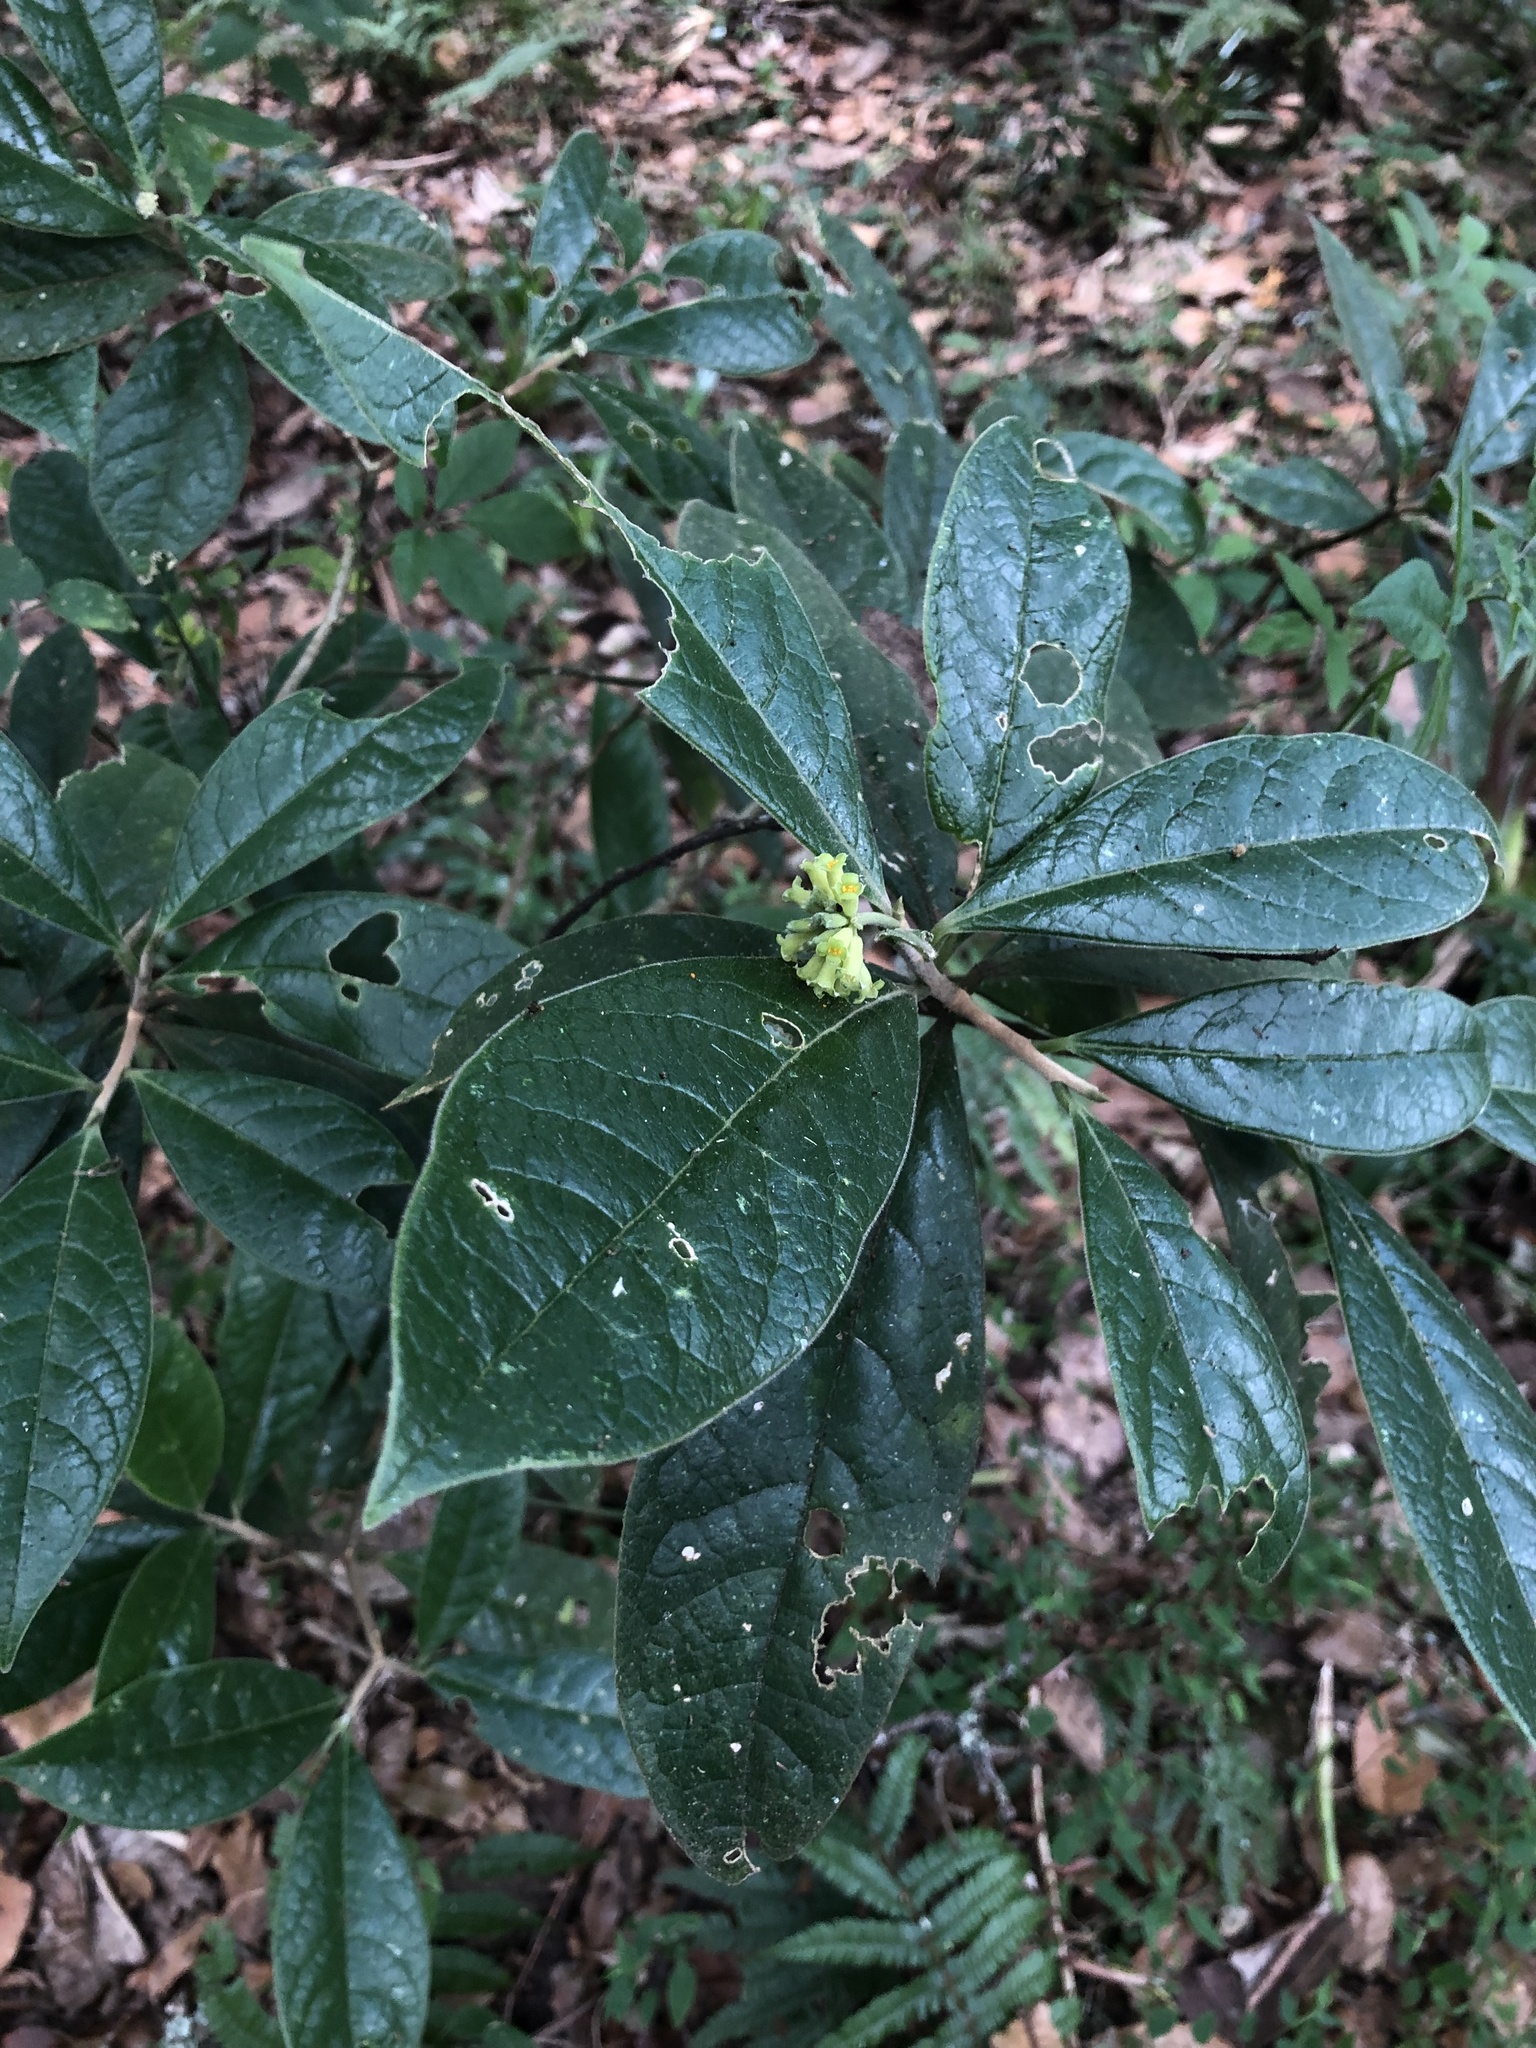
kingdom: Plantae
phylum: Tracheophyta
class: Magnoliopsida
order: Malvales
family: Thymelaeaceae
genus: Daphnopsis
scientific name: Daphnopsis selerorum
